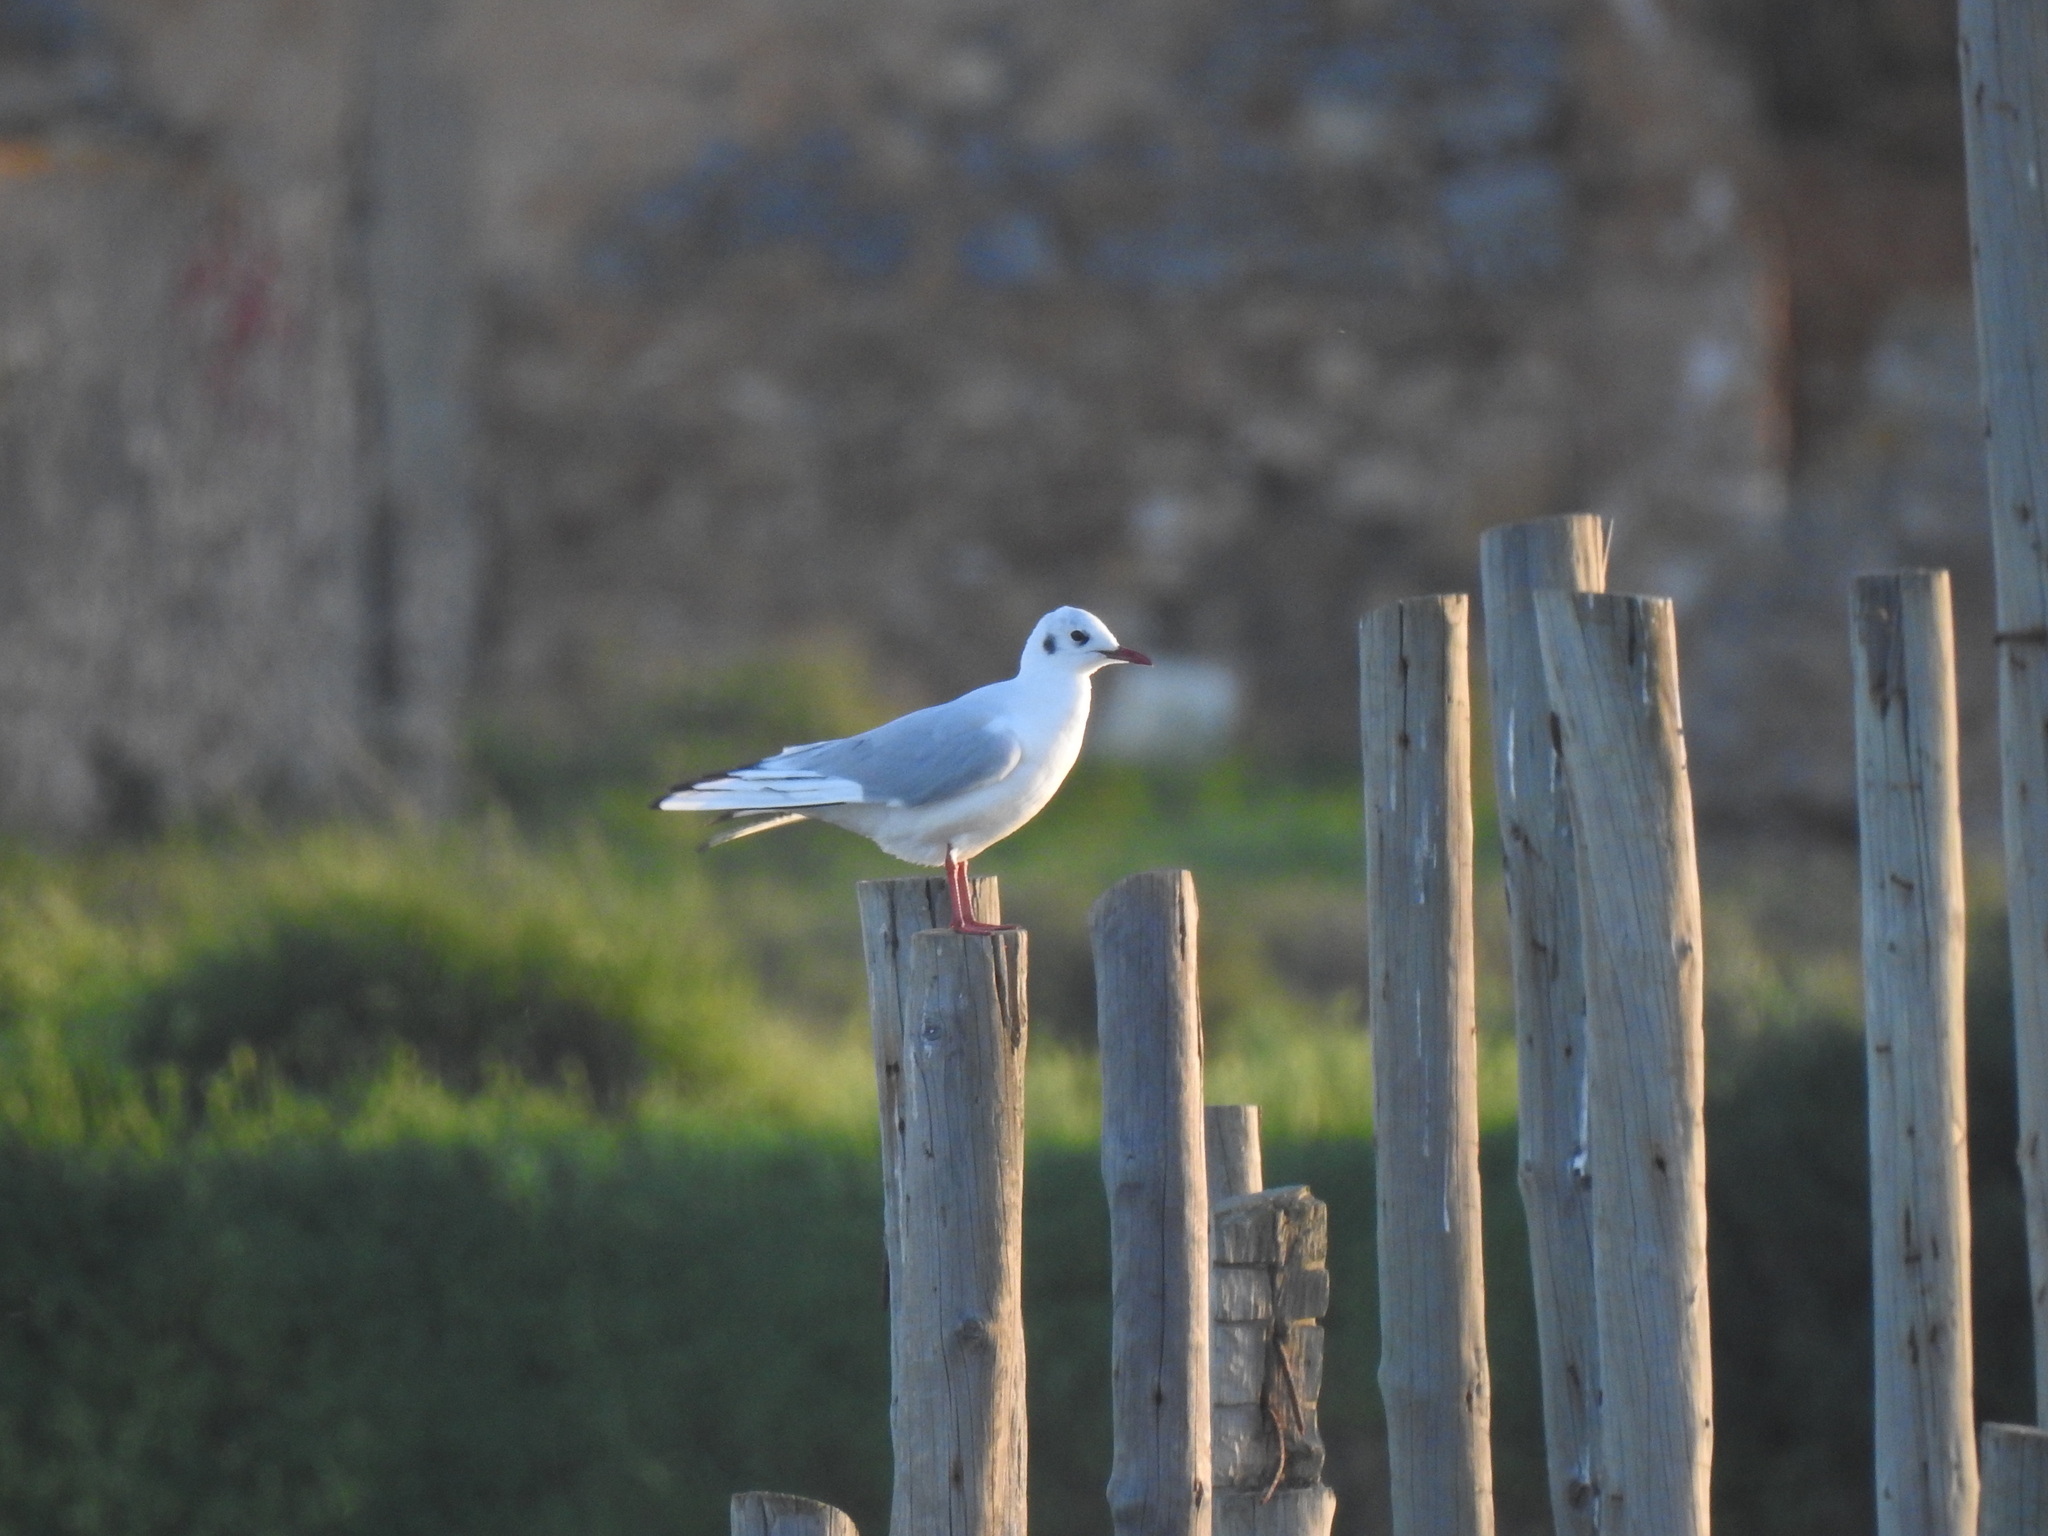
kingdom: Animalia
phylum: Chordata
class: Aves
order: Charadriiformes
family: Laridae
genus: Chroicocephalus
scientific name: Chroicocephalus ridibundus
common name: Black-headed gull
